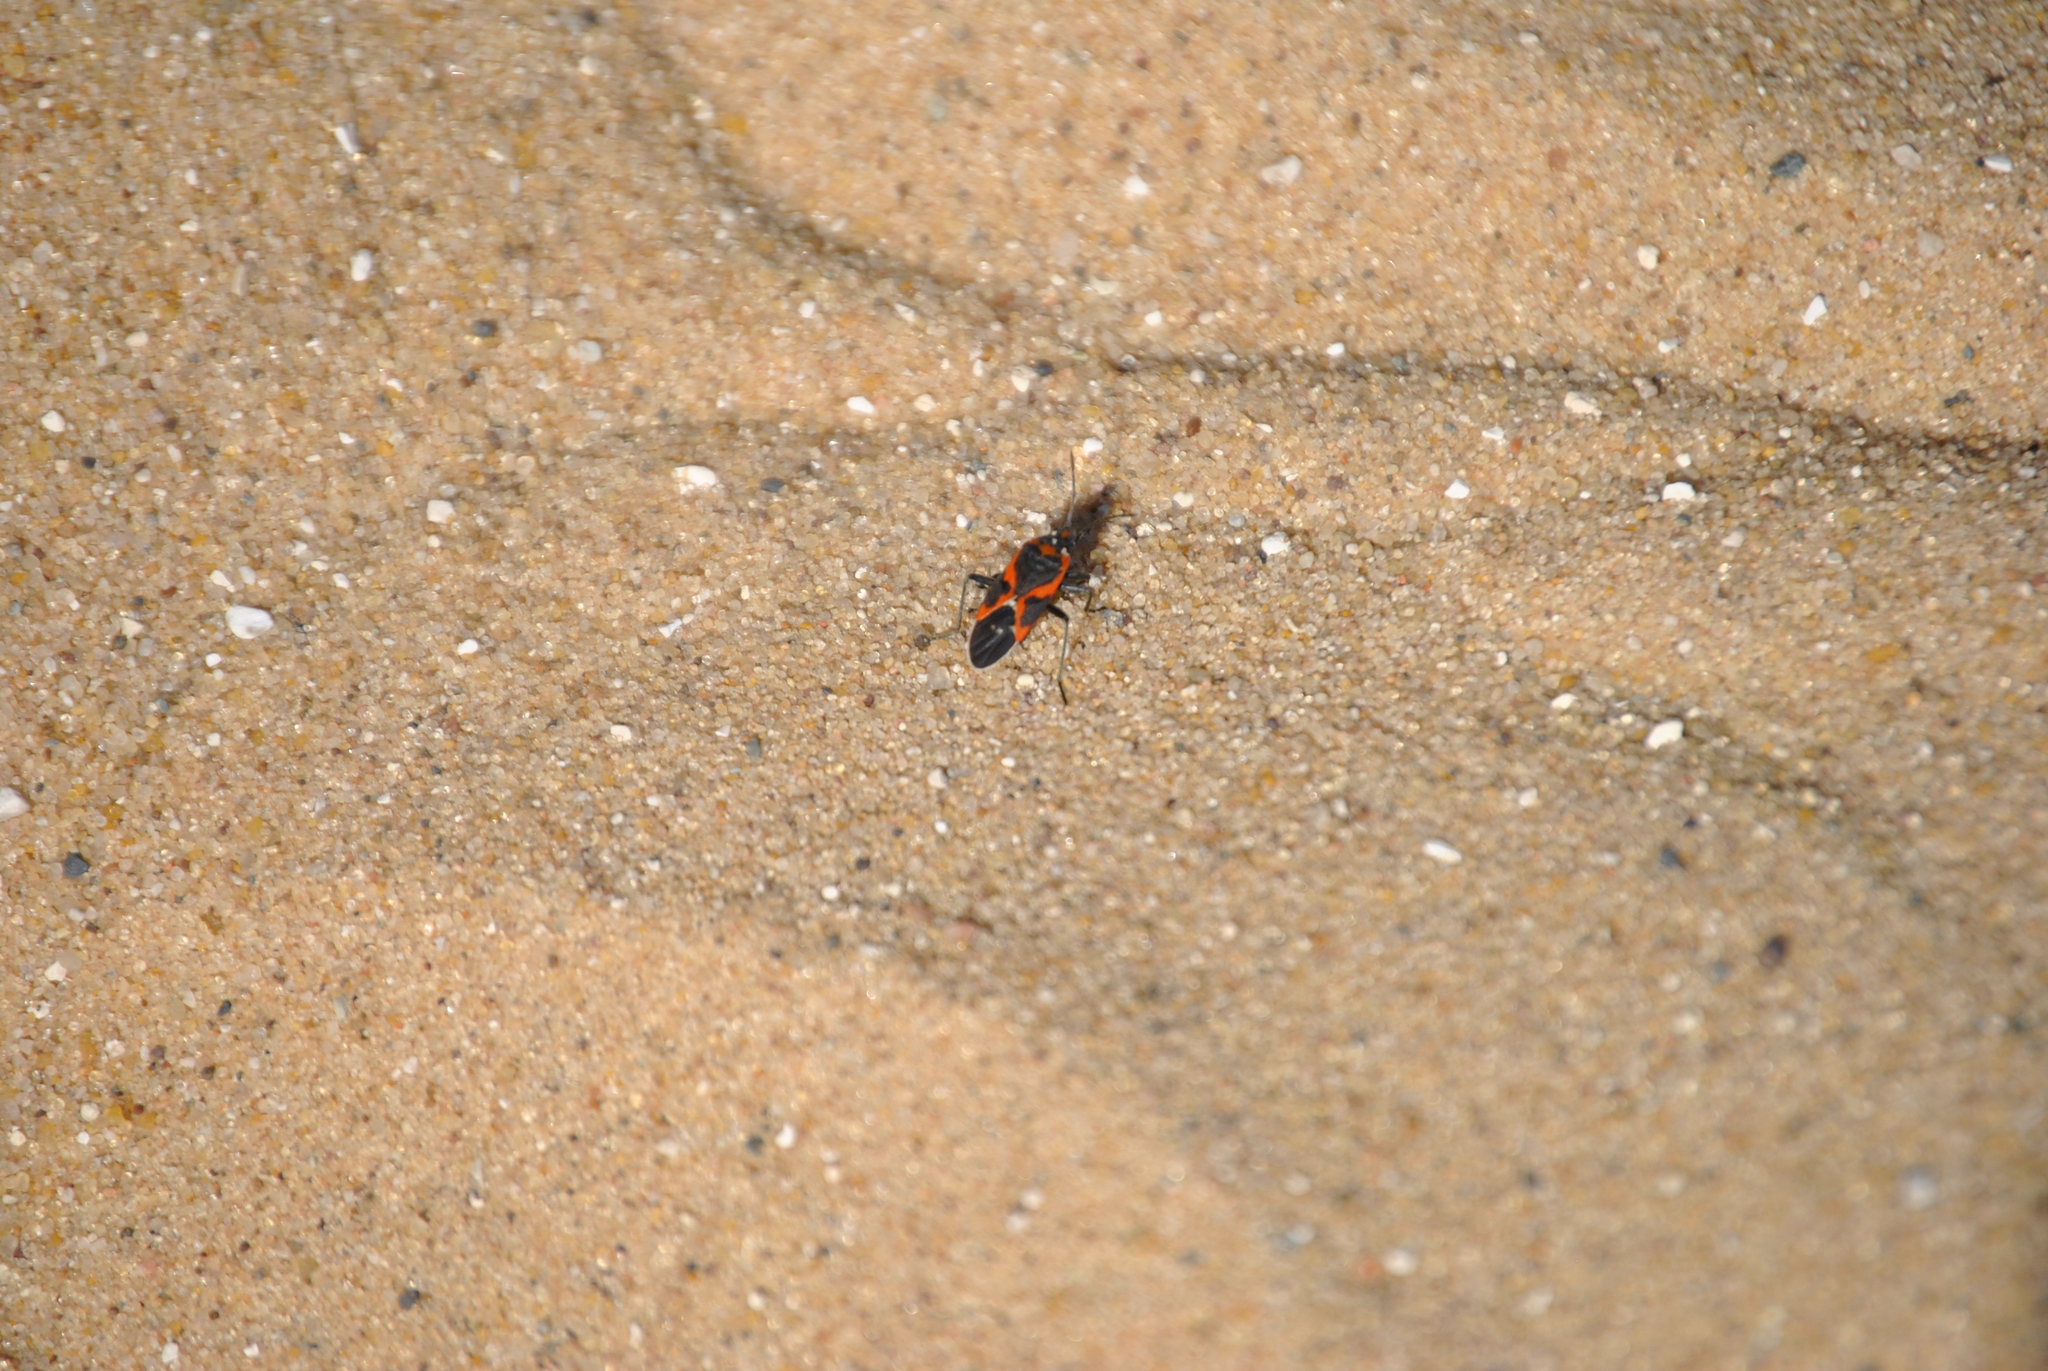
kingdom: Animalia
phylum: Arthropoda
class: Insecta
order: Hemiptera
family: Lygaeidae
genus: Lygaeus
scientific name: Lygaeus kalmii
